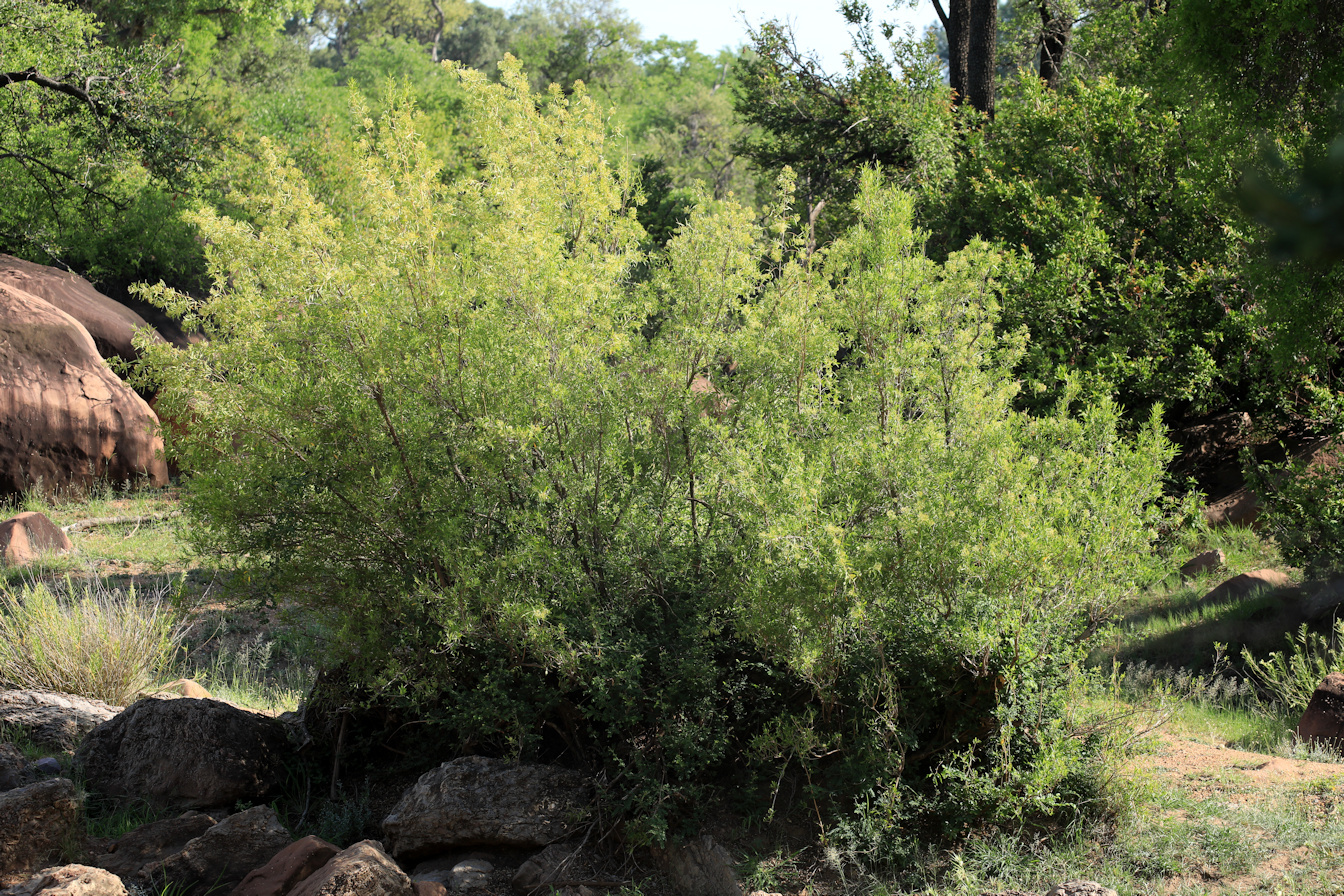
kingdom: Plantae
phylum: Tracheophyta
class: Magnoliopsida
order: Lamiales
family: Stilbaceae
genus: Nuxia
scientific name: Nuxia oppositifolia
